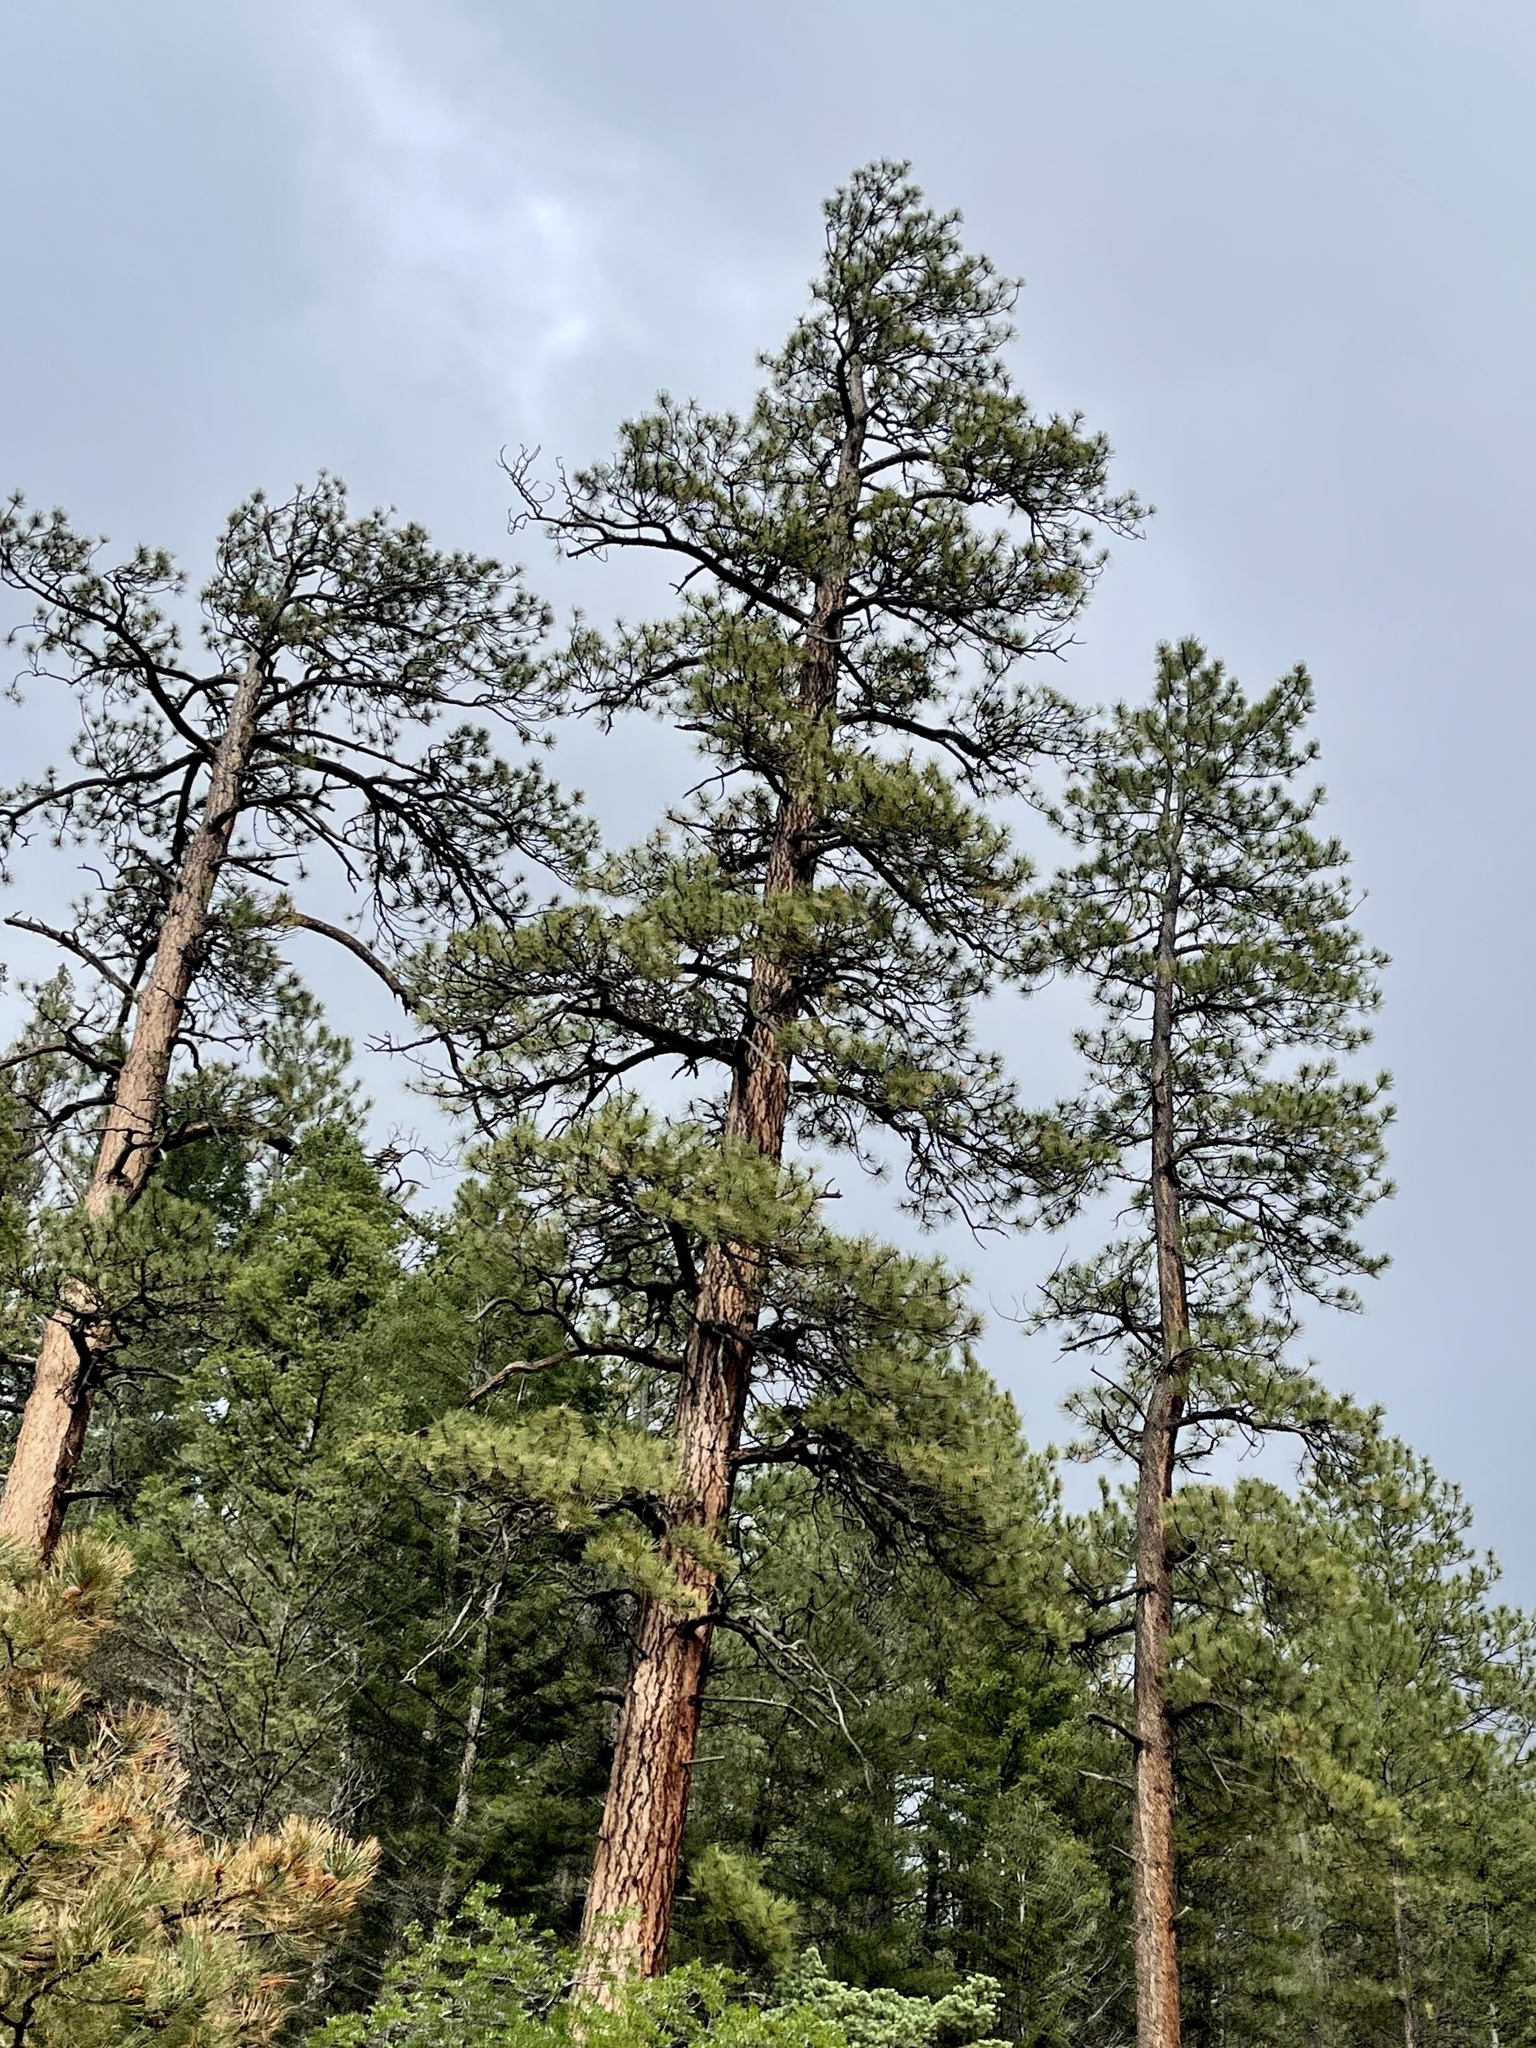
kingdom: Plantae
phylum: Tracheophyta
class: Pinopsida
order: Pinales
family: Pinaceae
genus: Pinus
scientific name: Pinus ponderosa
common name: Western yellow-pine
